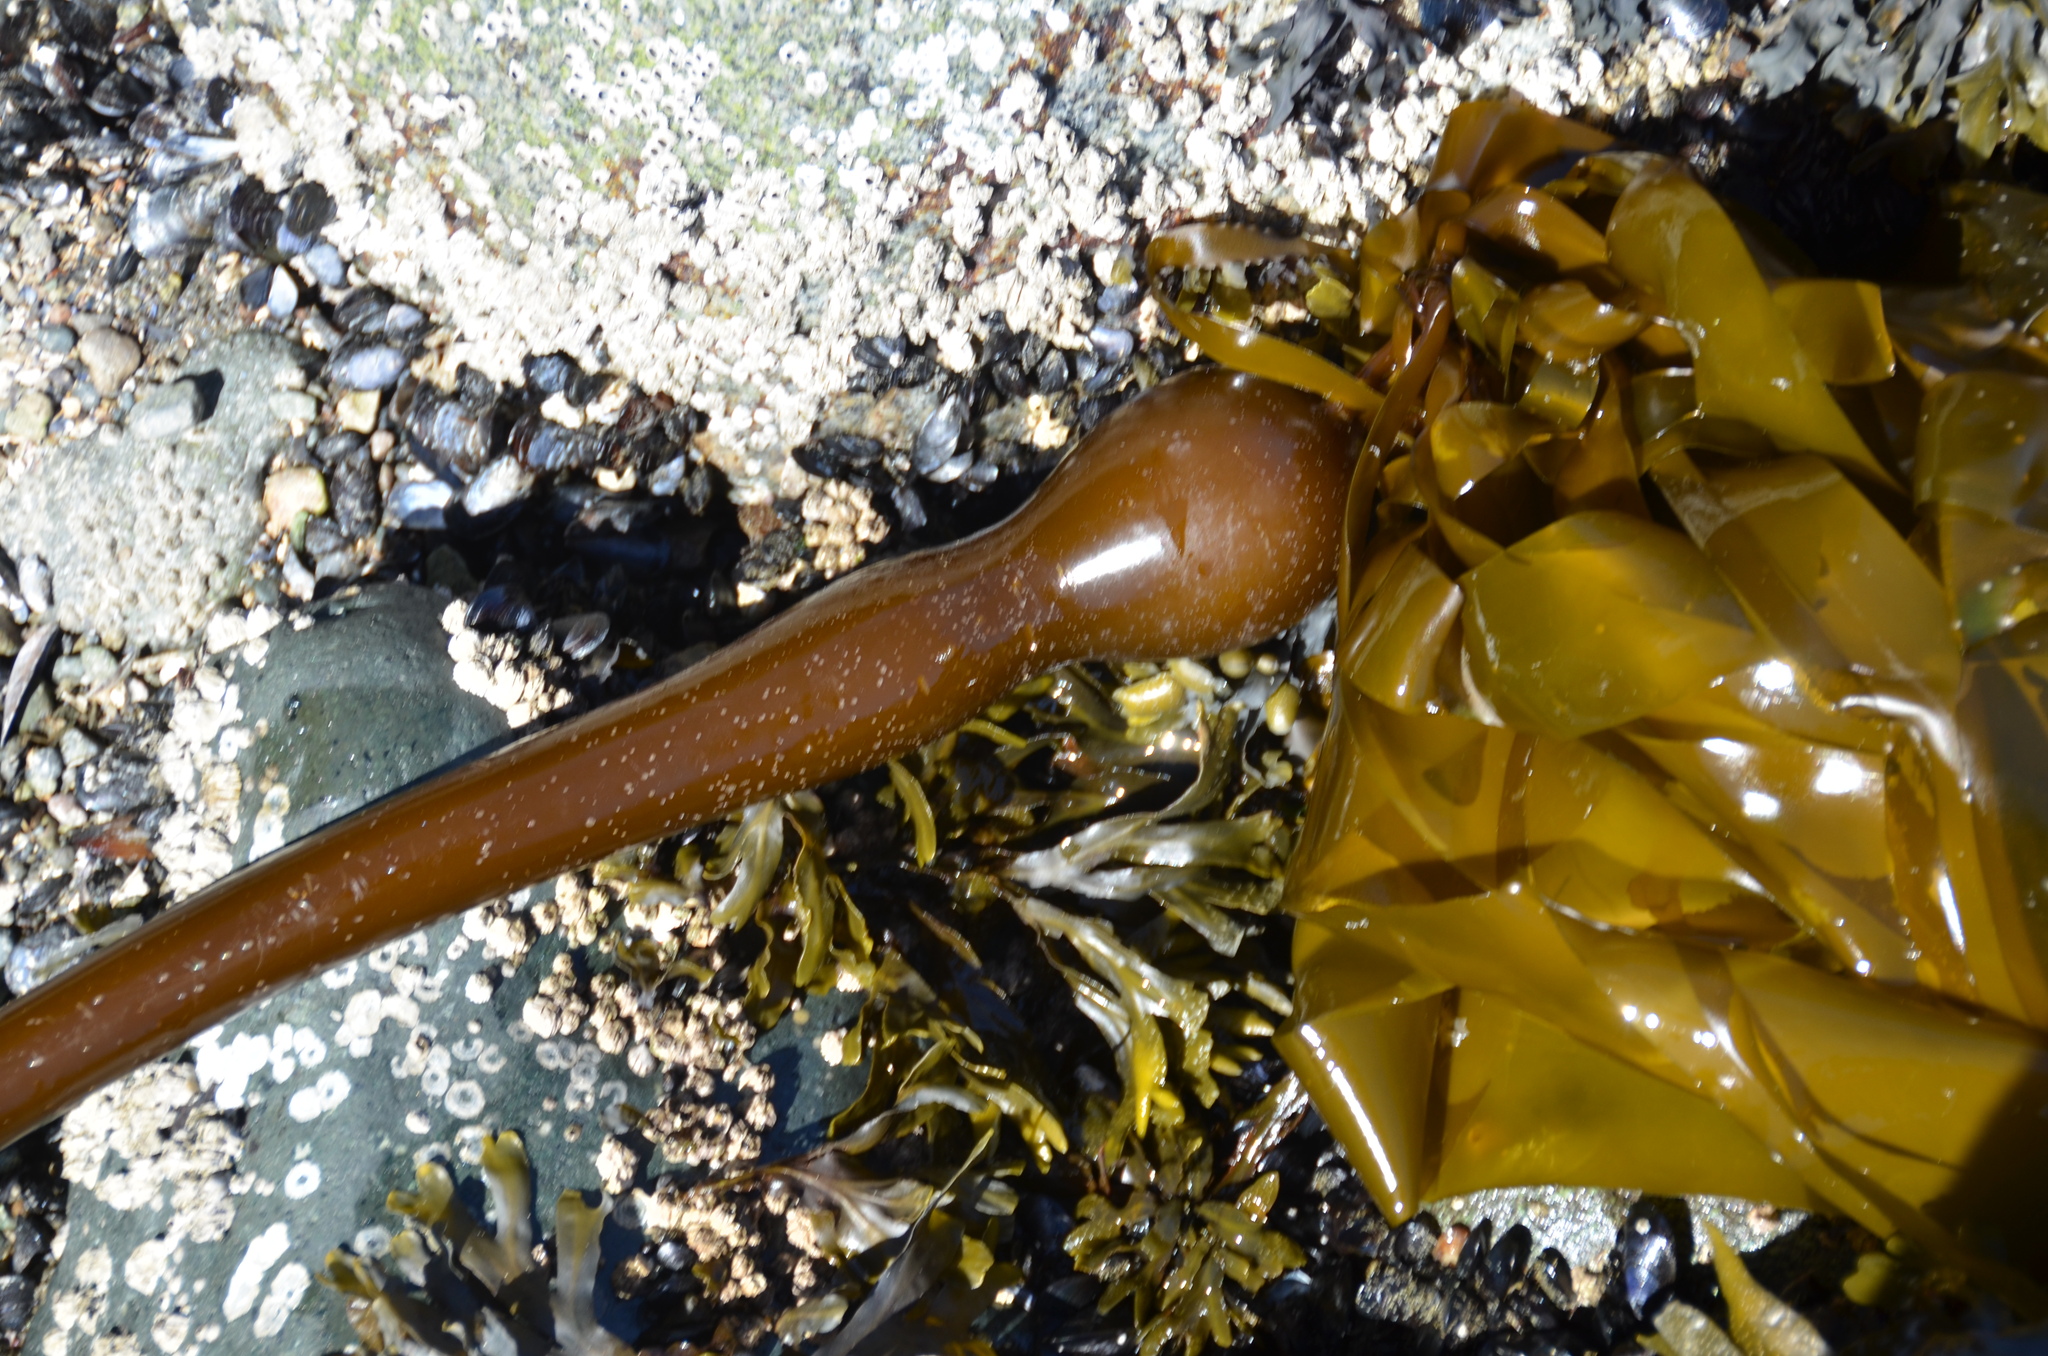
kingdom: Chromista
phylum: Ochrophyta
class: Phaeophyceae
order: Laminariales
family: Laminariaceae
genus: Nereocystis
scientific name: Nereocystis luetkeana
